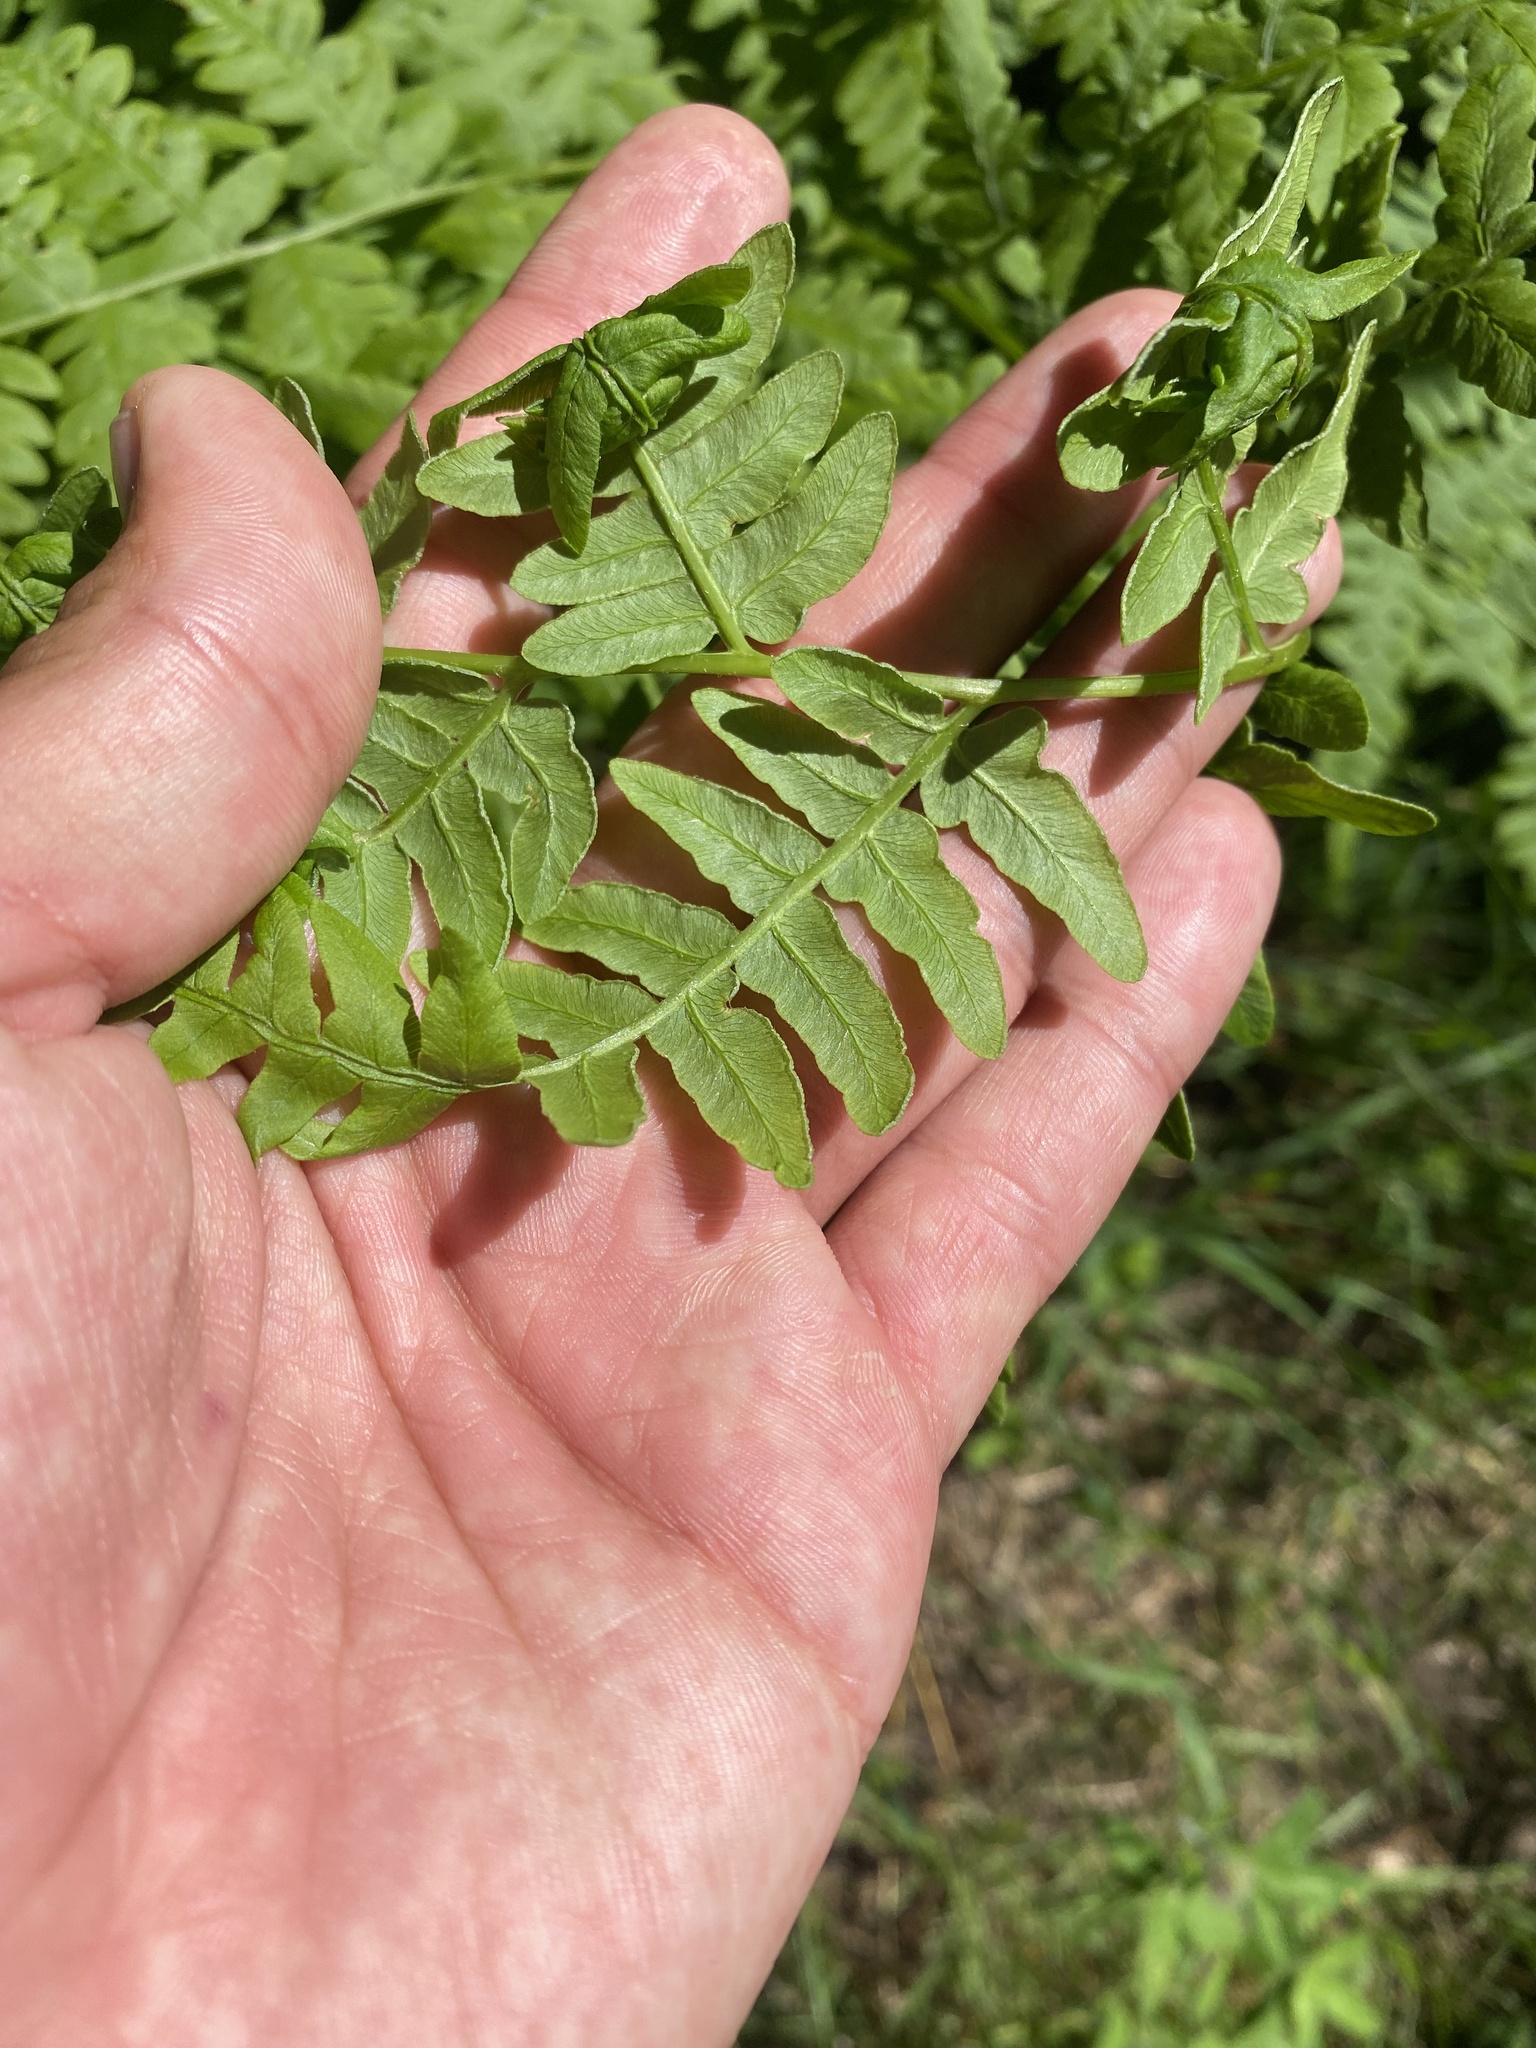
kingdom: Plantae
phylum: Tracheophyta
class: Polypodiopsida
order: Polypodiales
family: Dennstaedtiaceae
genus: Pteridium
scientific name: Pteridium aquilinum
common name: Bracken
